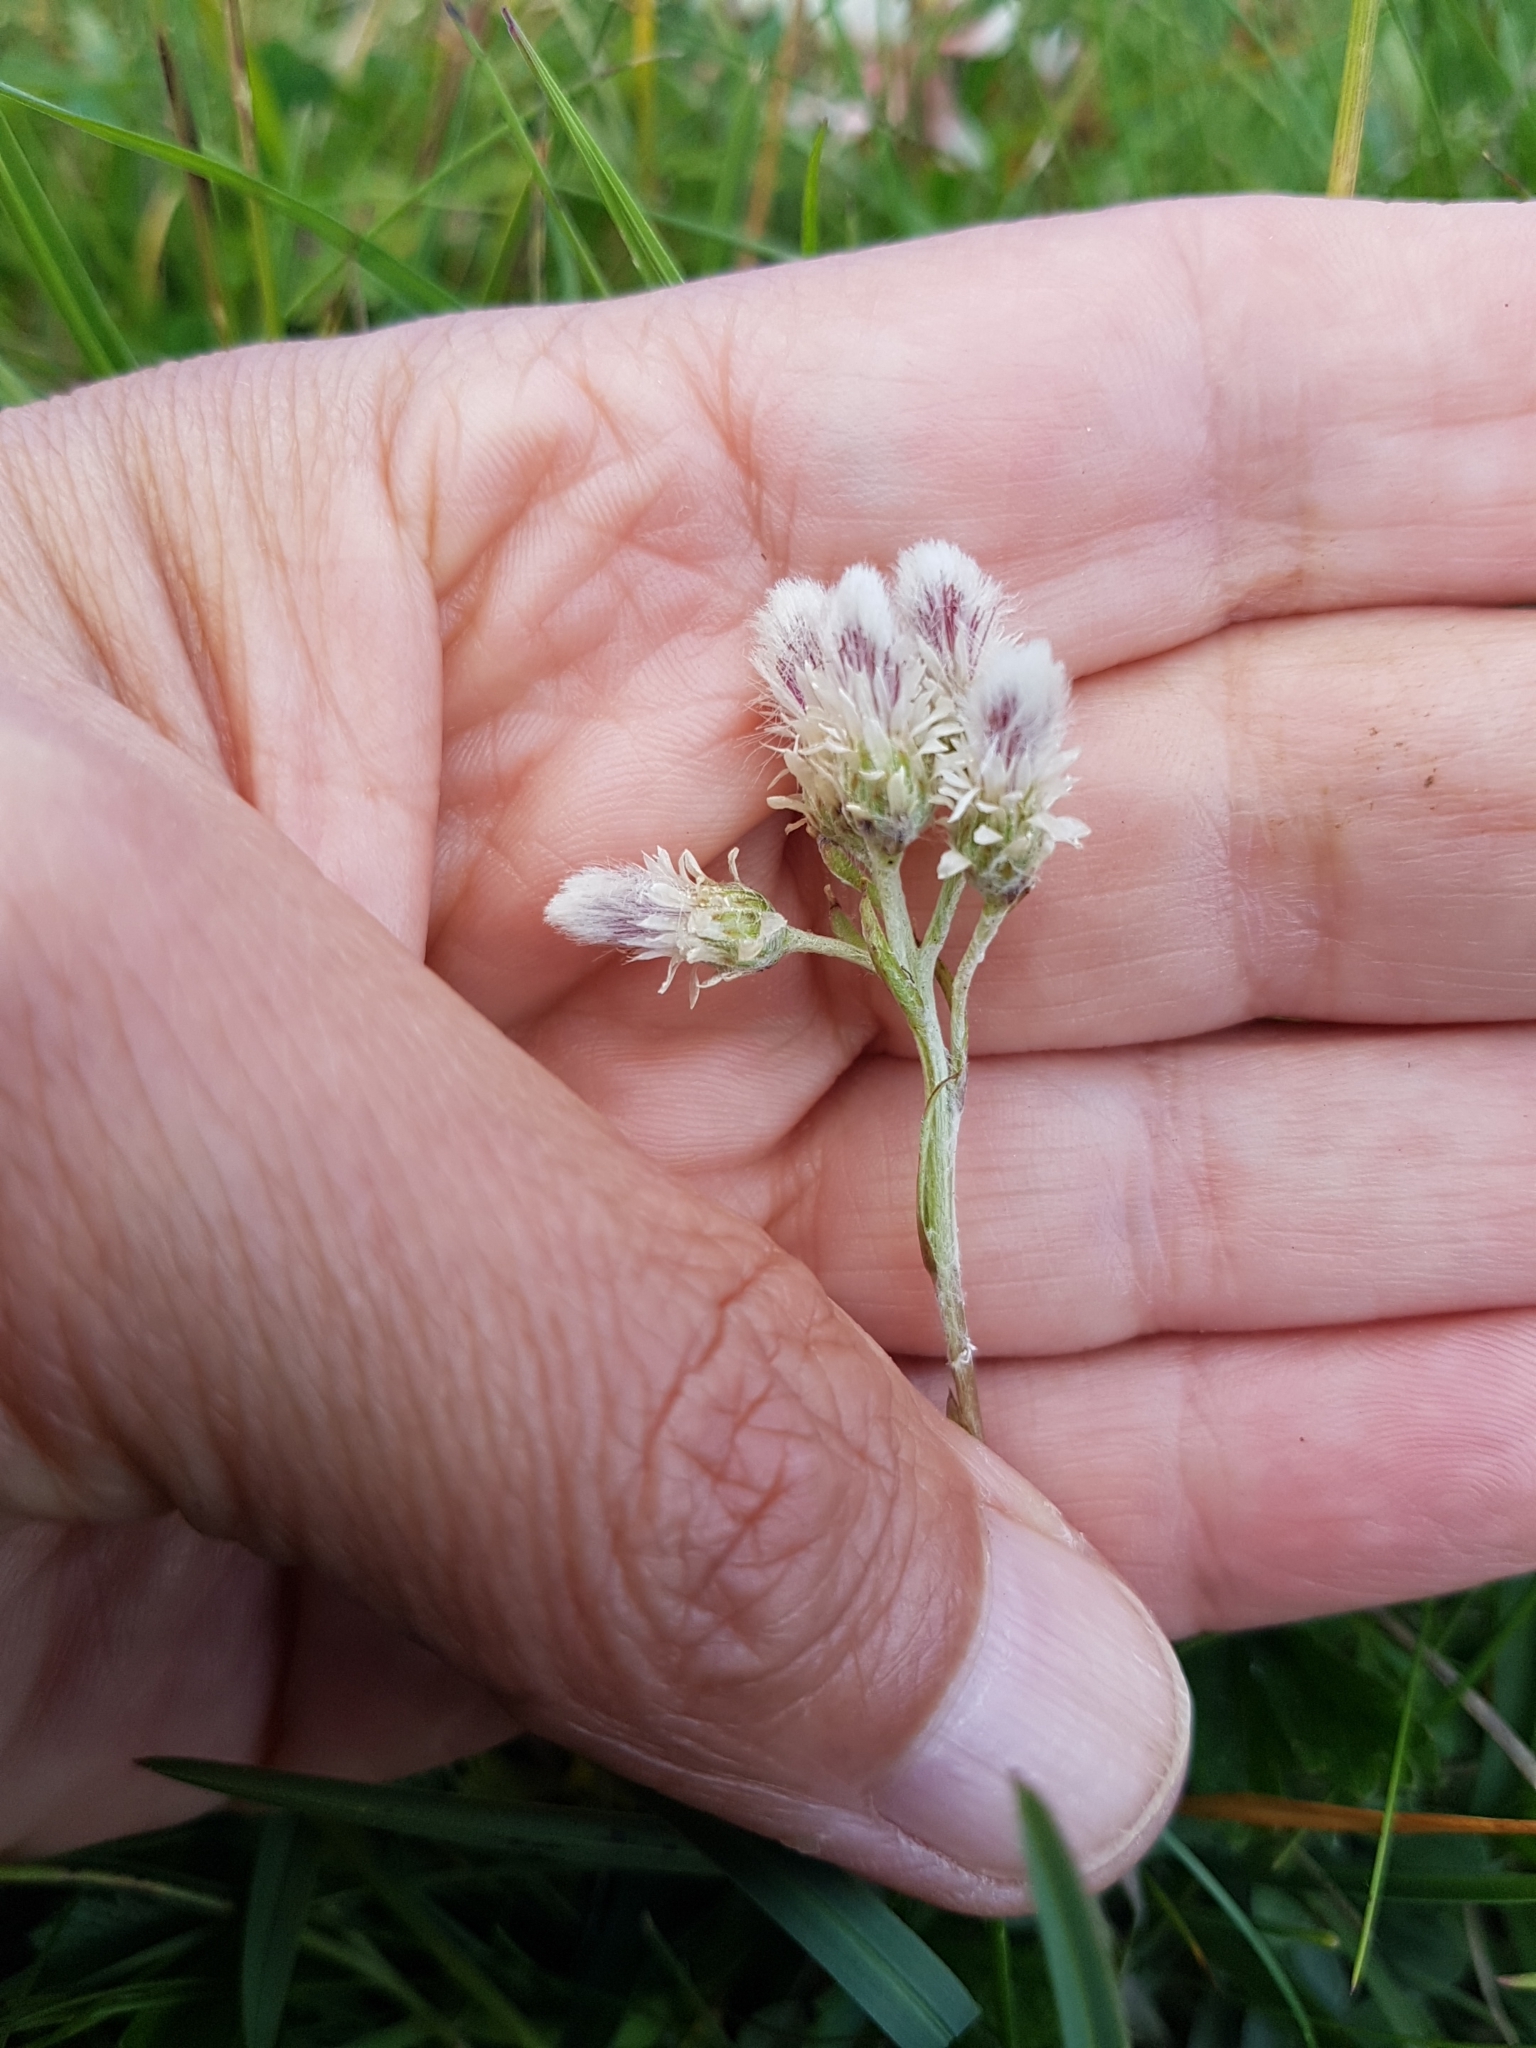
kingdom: Plantae
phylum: Tracheophyta
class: Magnoliopsida
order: Asterales
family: Asteraceae
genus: Antennaria
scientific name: Antennaria dioica
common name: Mountain everlasting
